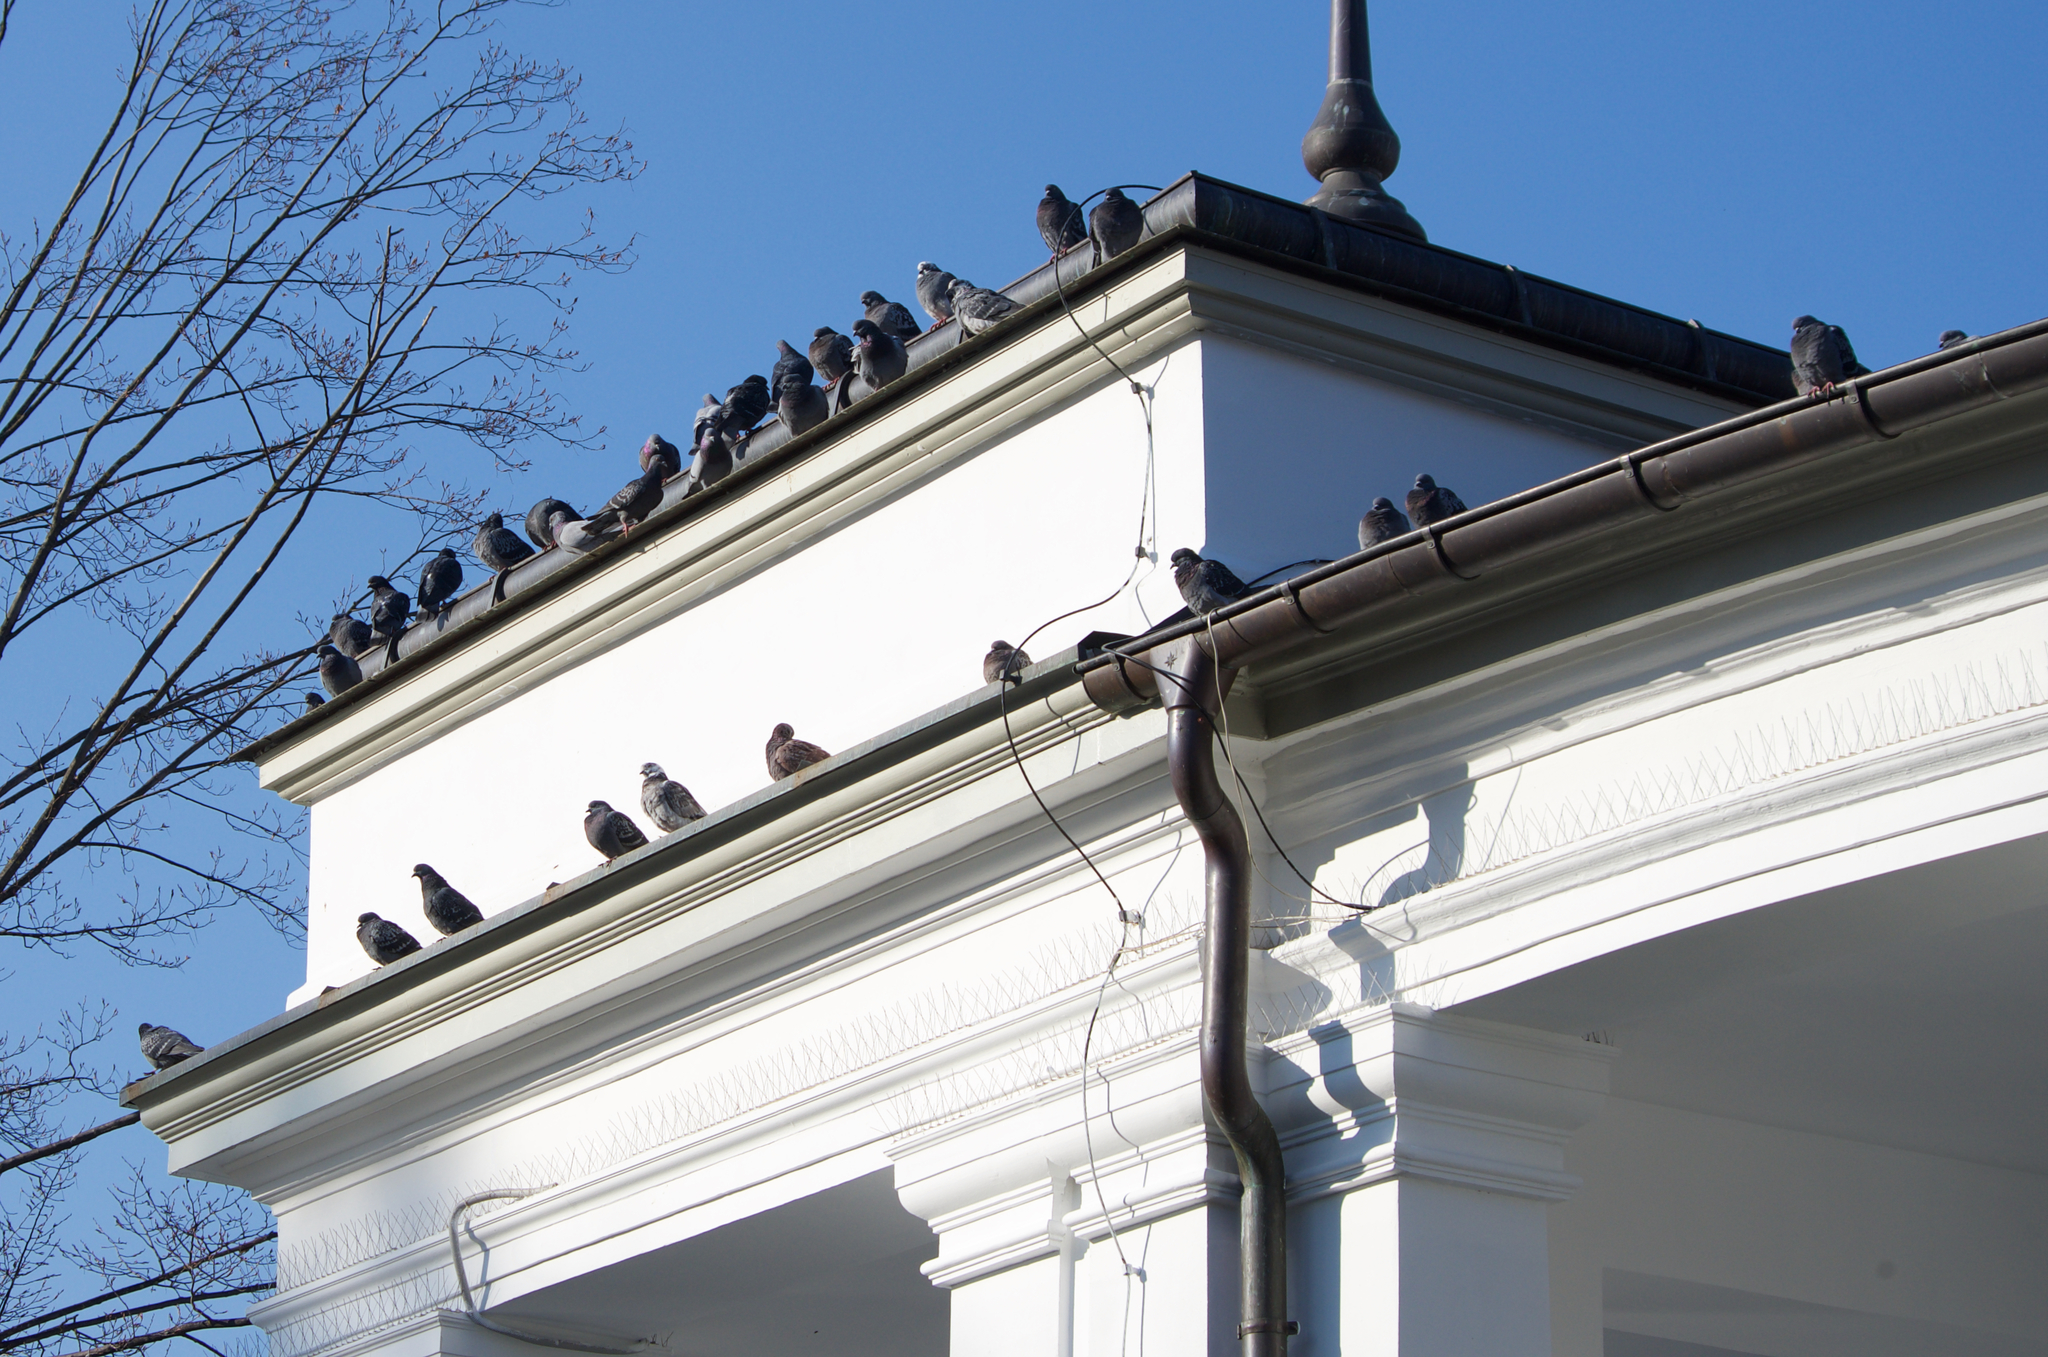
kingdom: Animalia
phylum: Chordata
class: Aves
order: Columbiformes
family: Columbidae
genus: Columba
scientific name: Columba livia
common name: Rock pigeon
